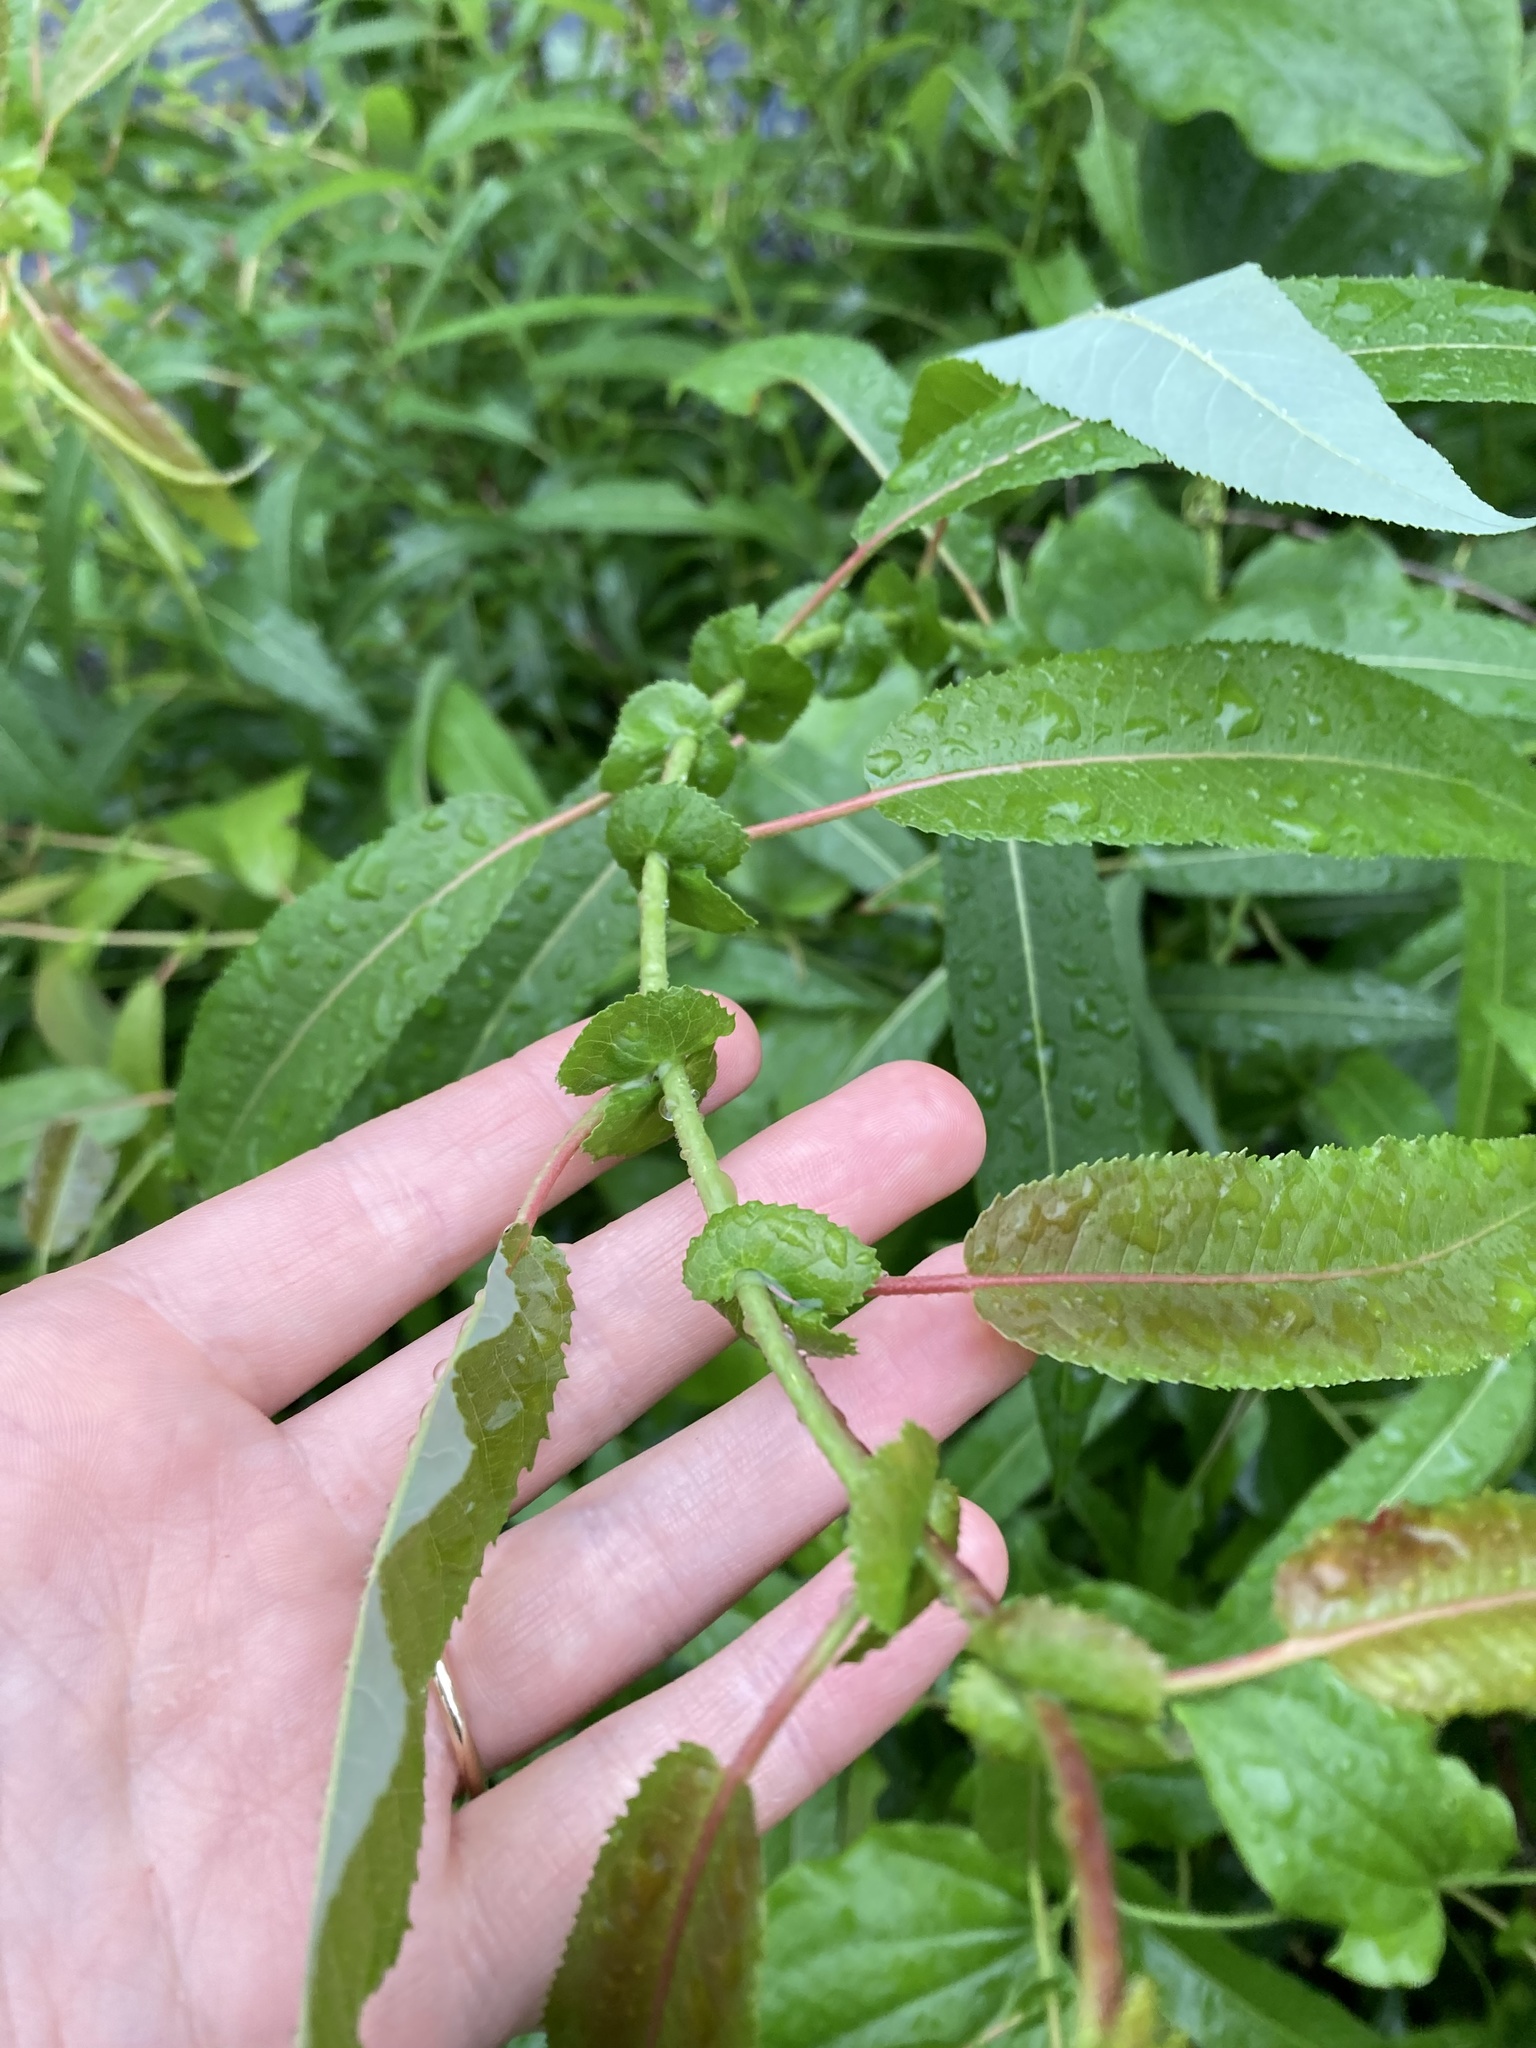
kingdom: Plantae
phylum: Tracheophyta
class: Magnoliopsida
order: Malpighiales
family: Salicaceae
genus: Salix
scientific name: Salix eriocephala
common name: Heart-leaved willow
